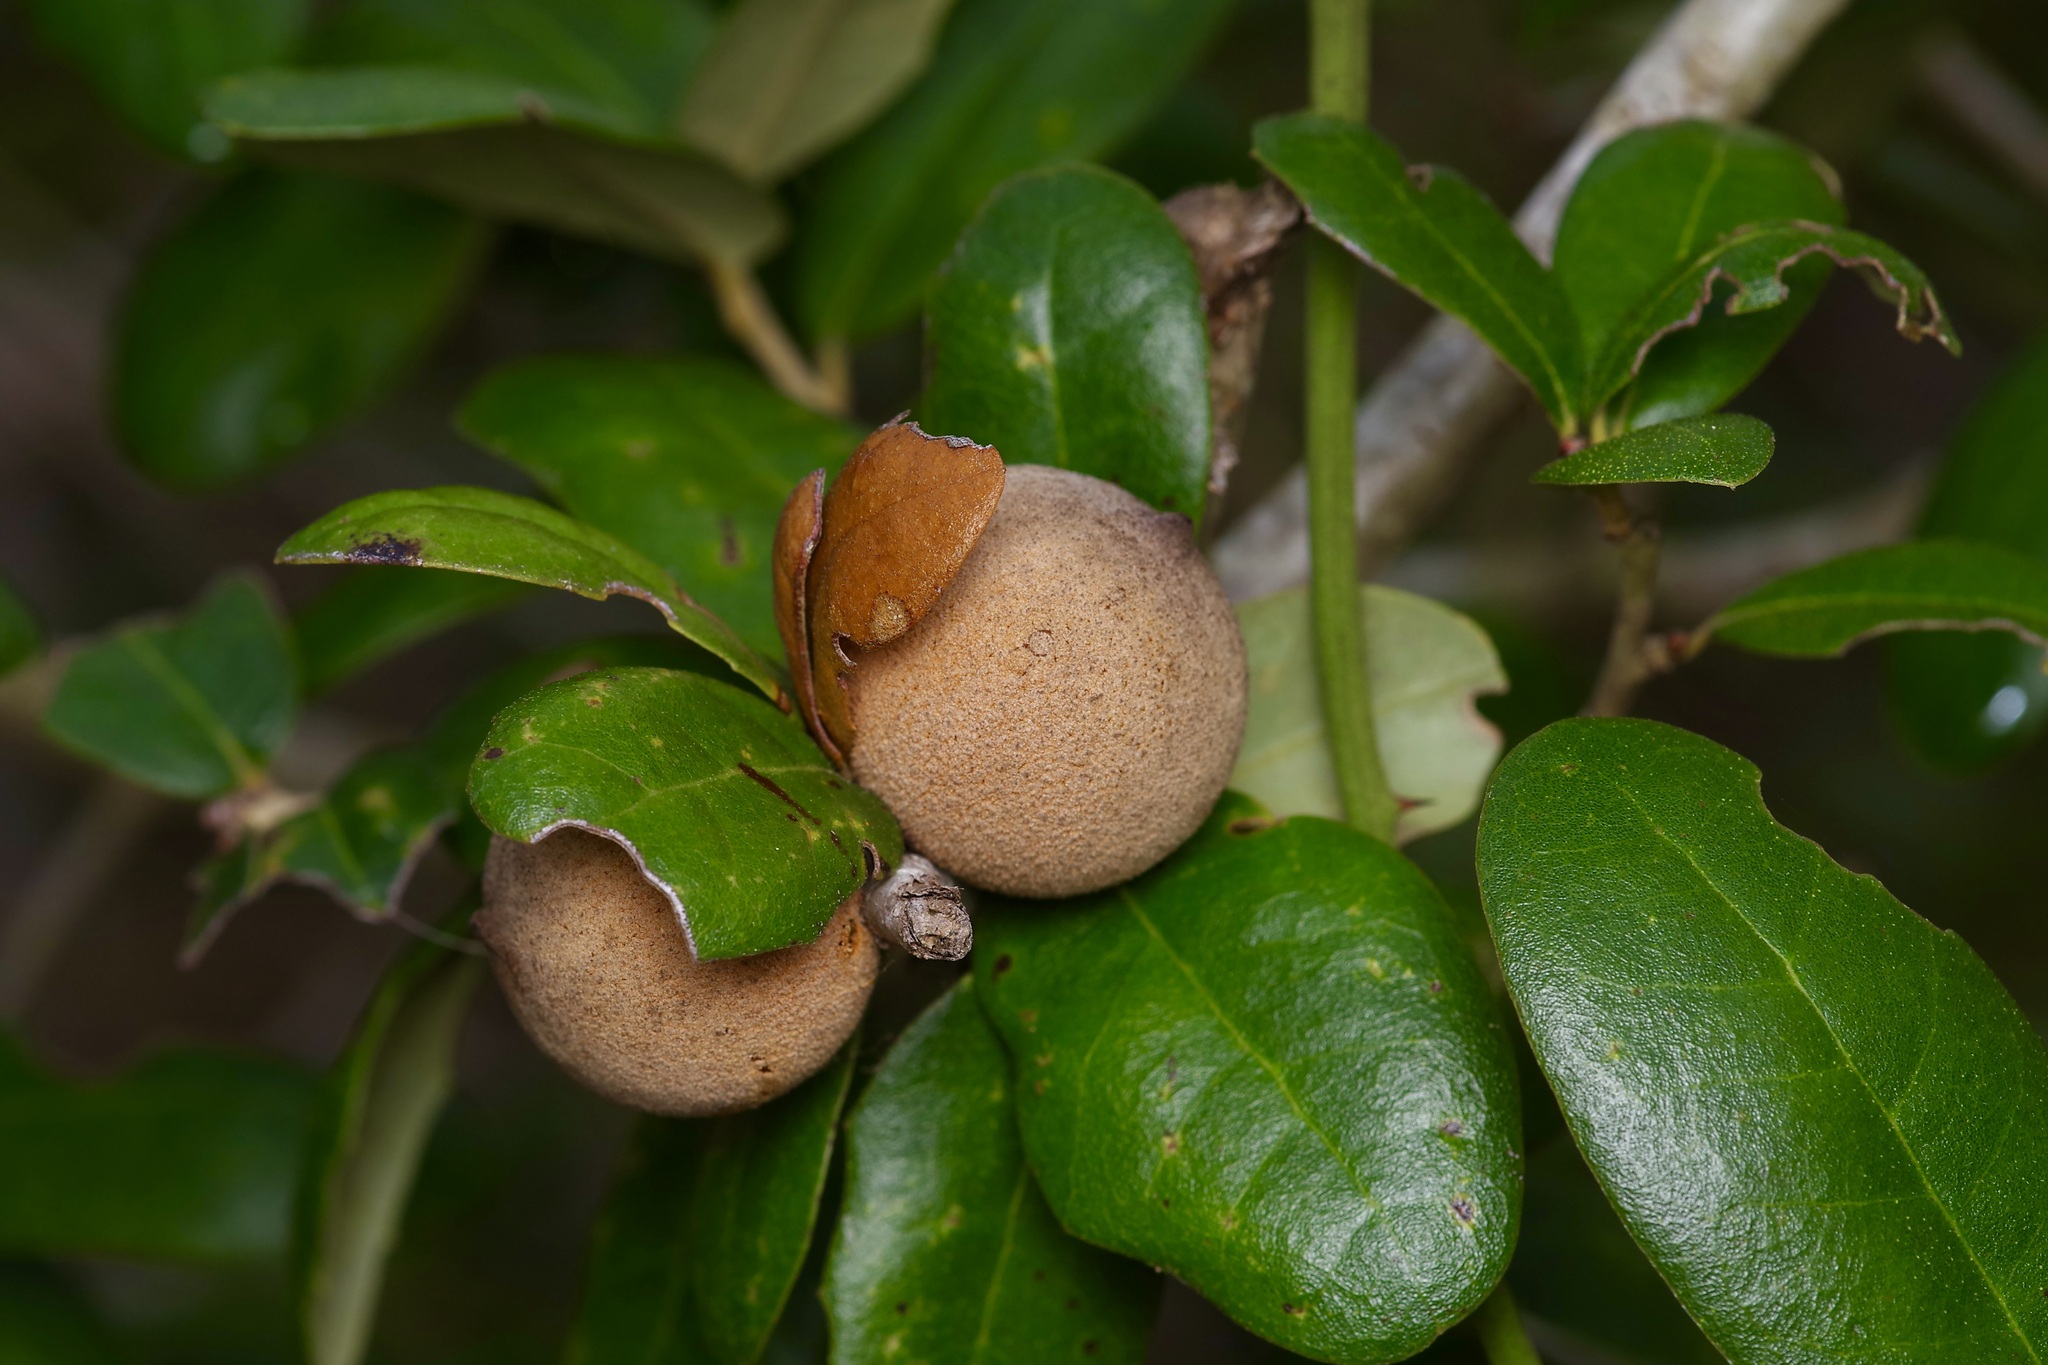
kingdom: Animalia
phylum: Arthropoda
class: Insecta
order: Hymenoptera
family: Cynipidae
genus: Disholcaspis
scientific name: Disholcaspis
